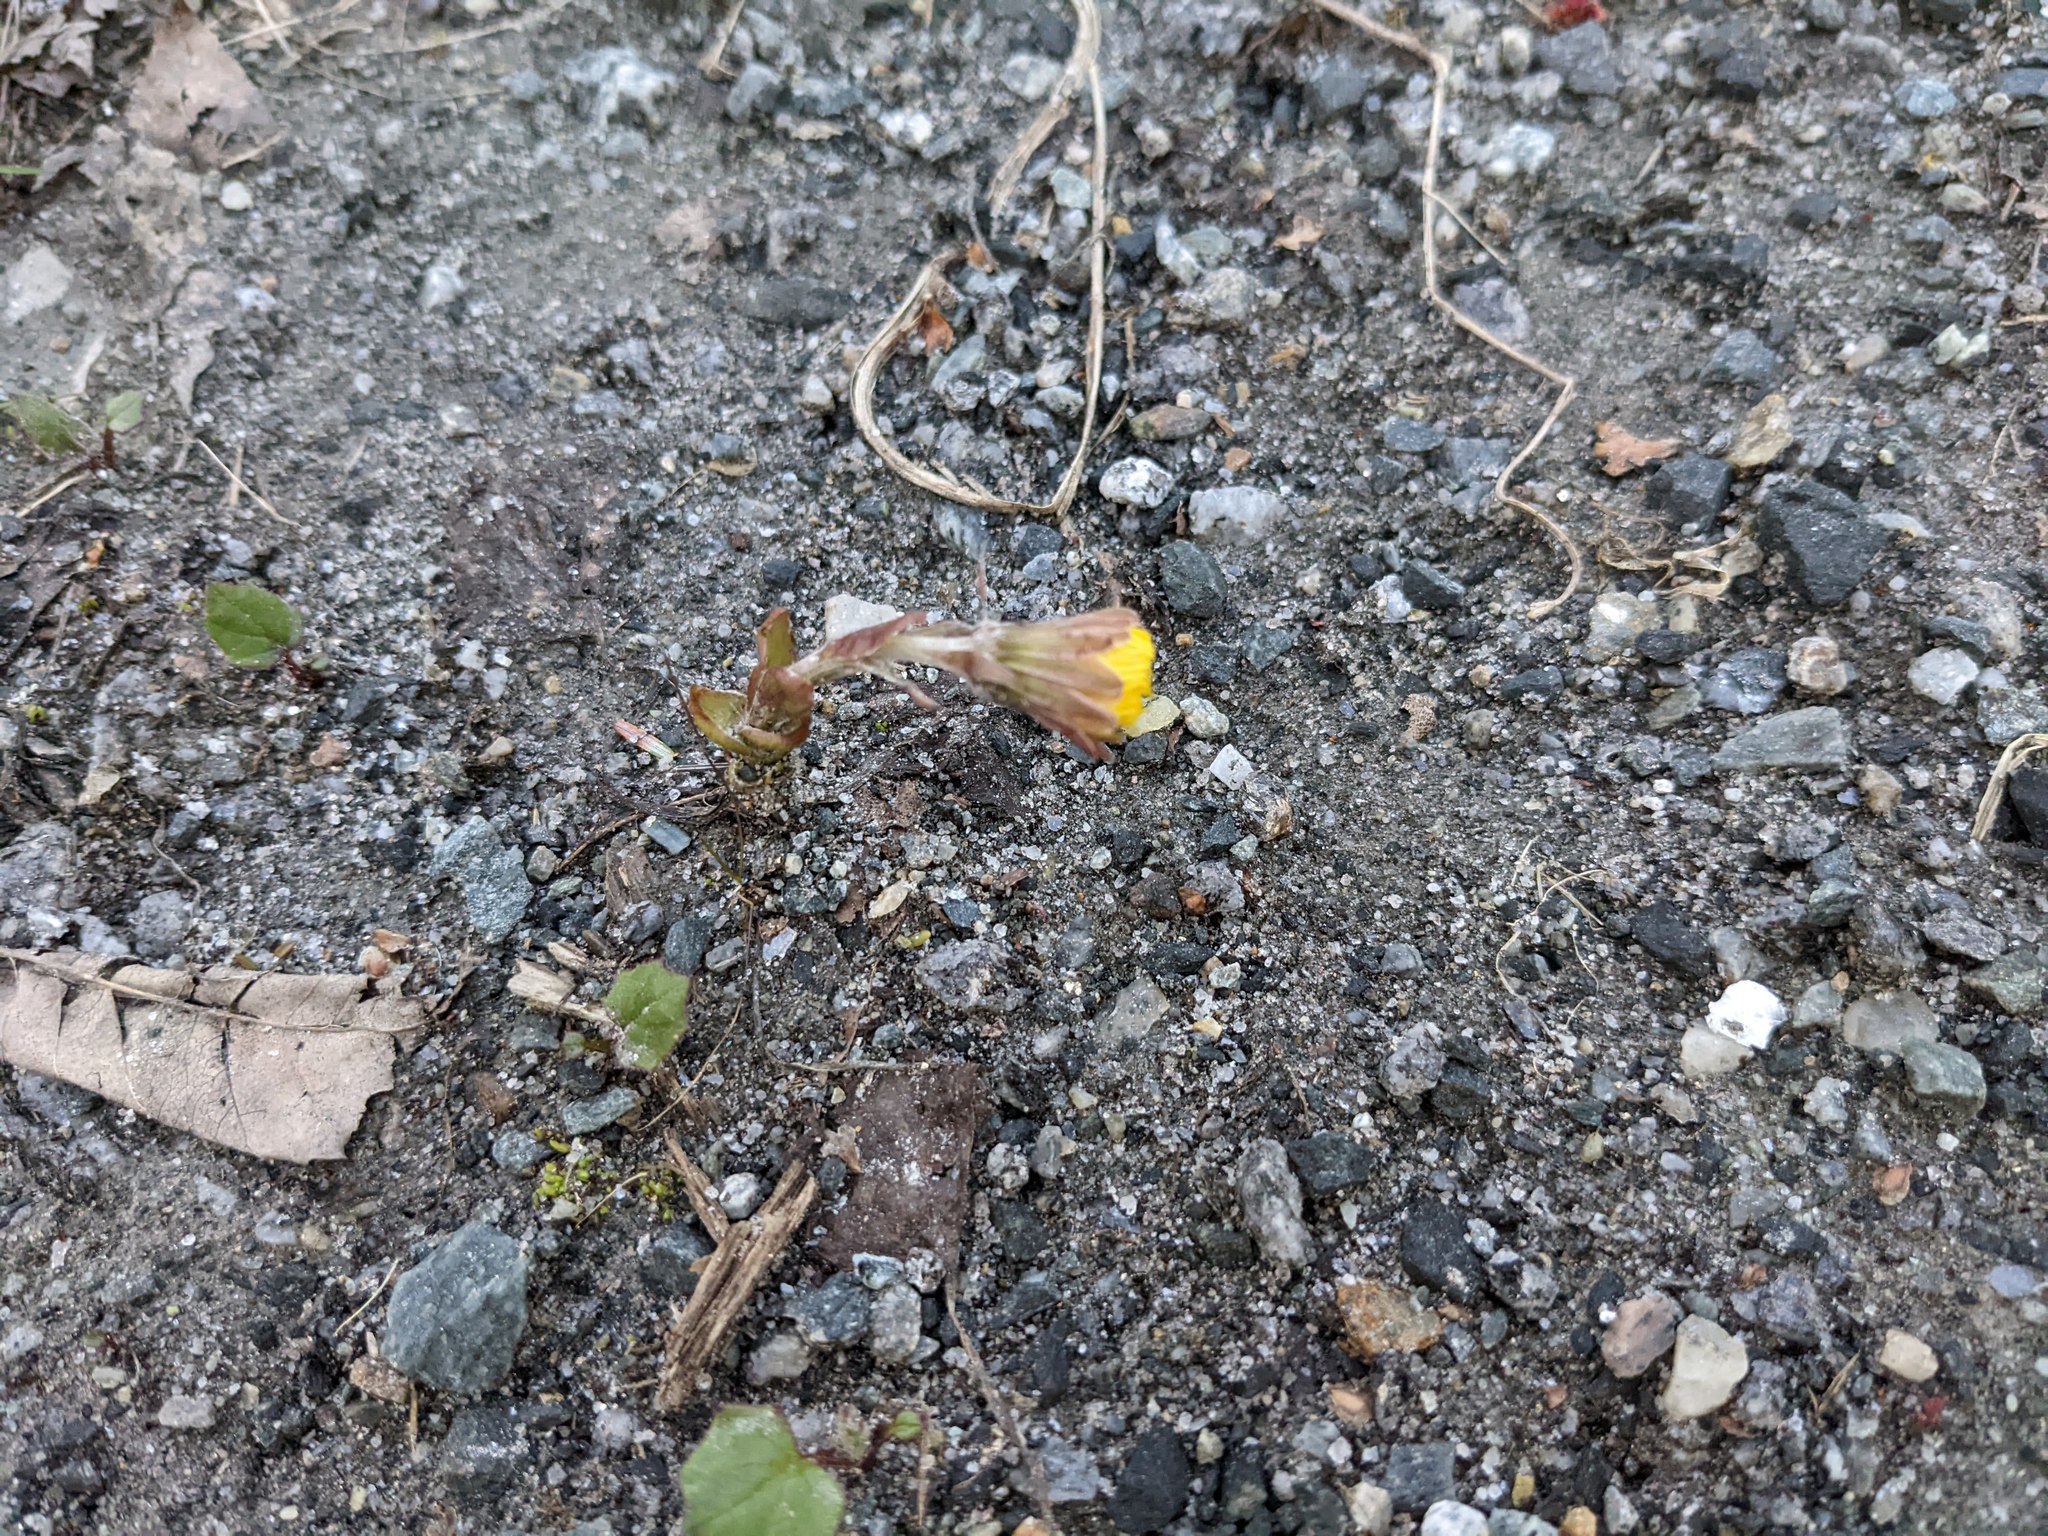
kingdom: Plantae
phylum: Tracheophyta
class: Magnoliopsida
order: Asterales
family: Asteraceae
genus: Tussilago
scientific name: Tussilago farfara
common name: Coltsfoot
